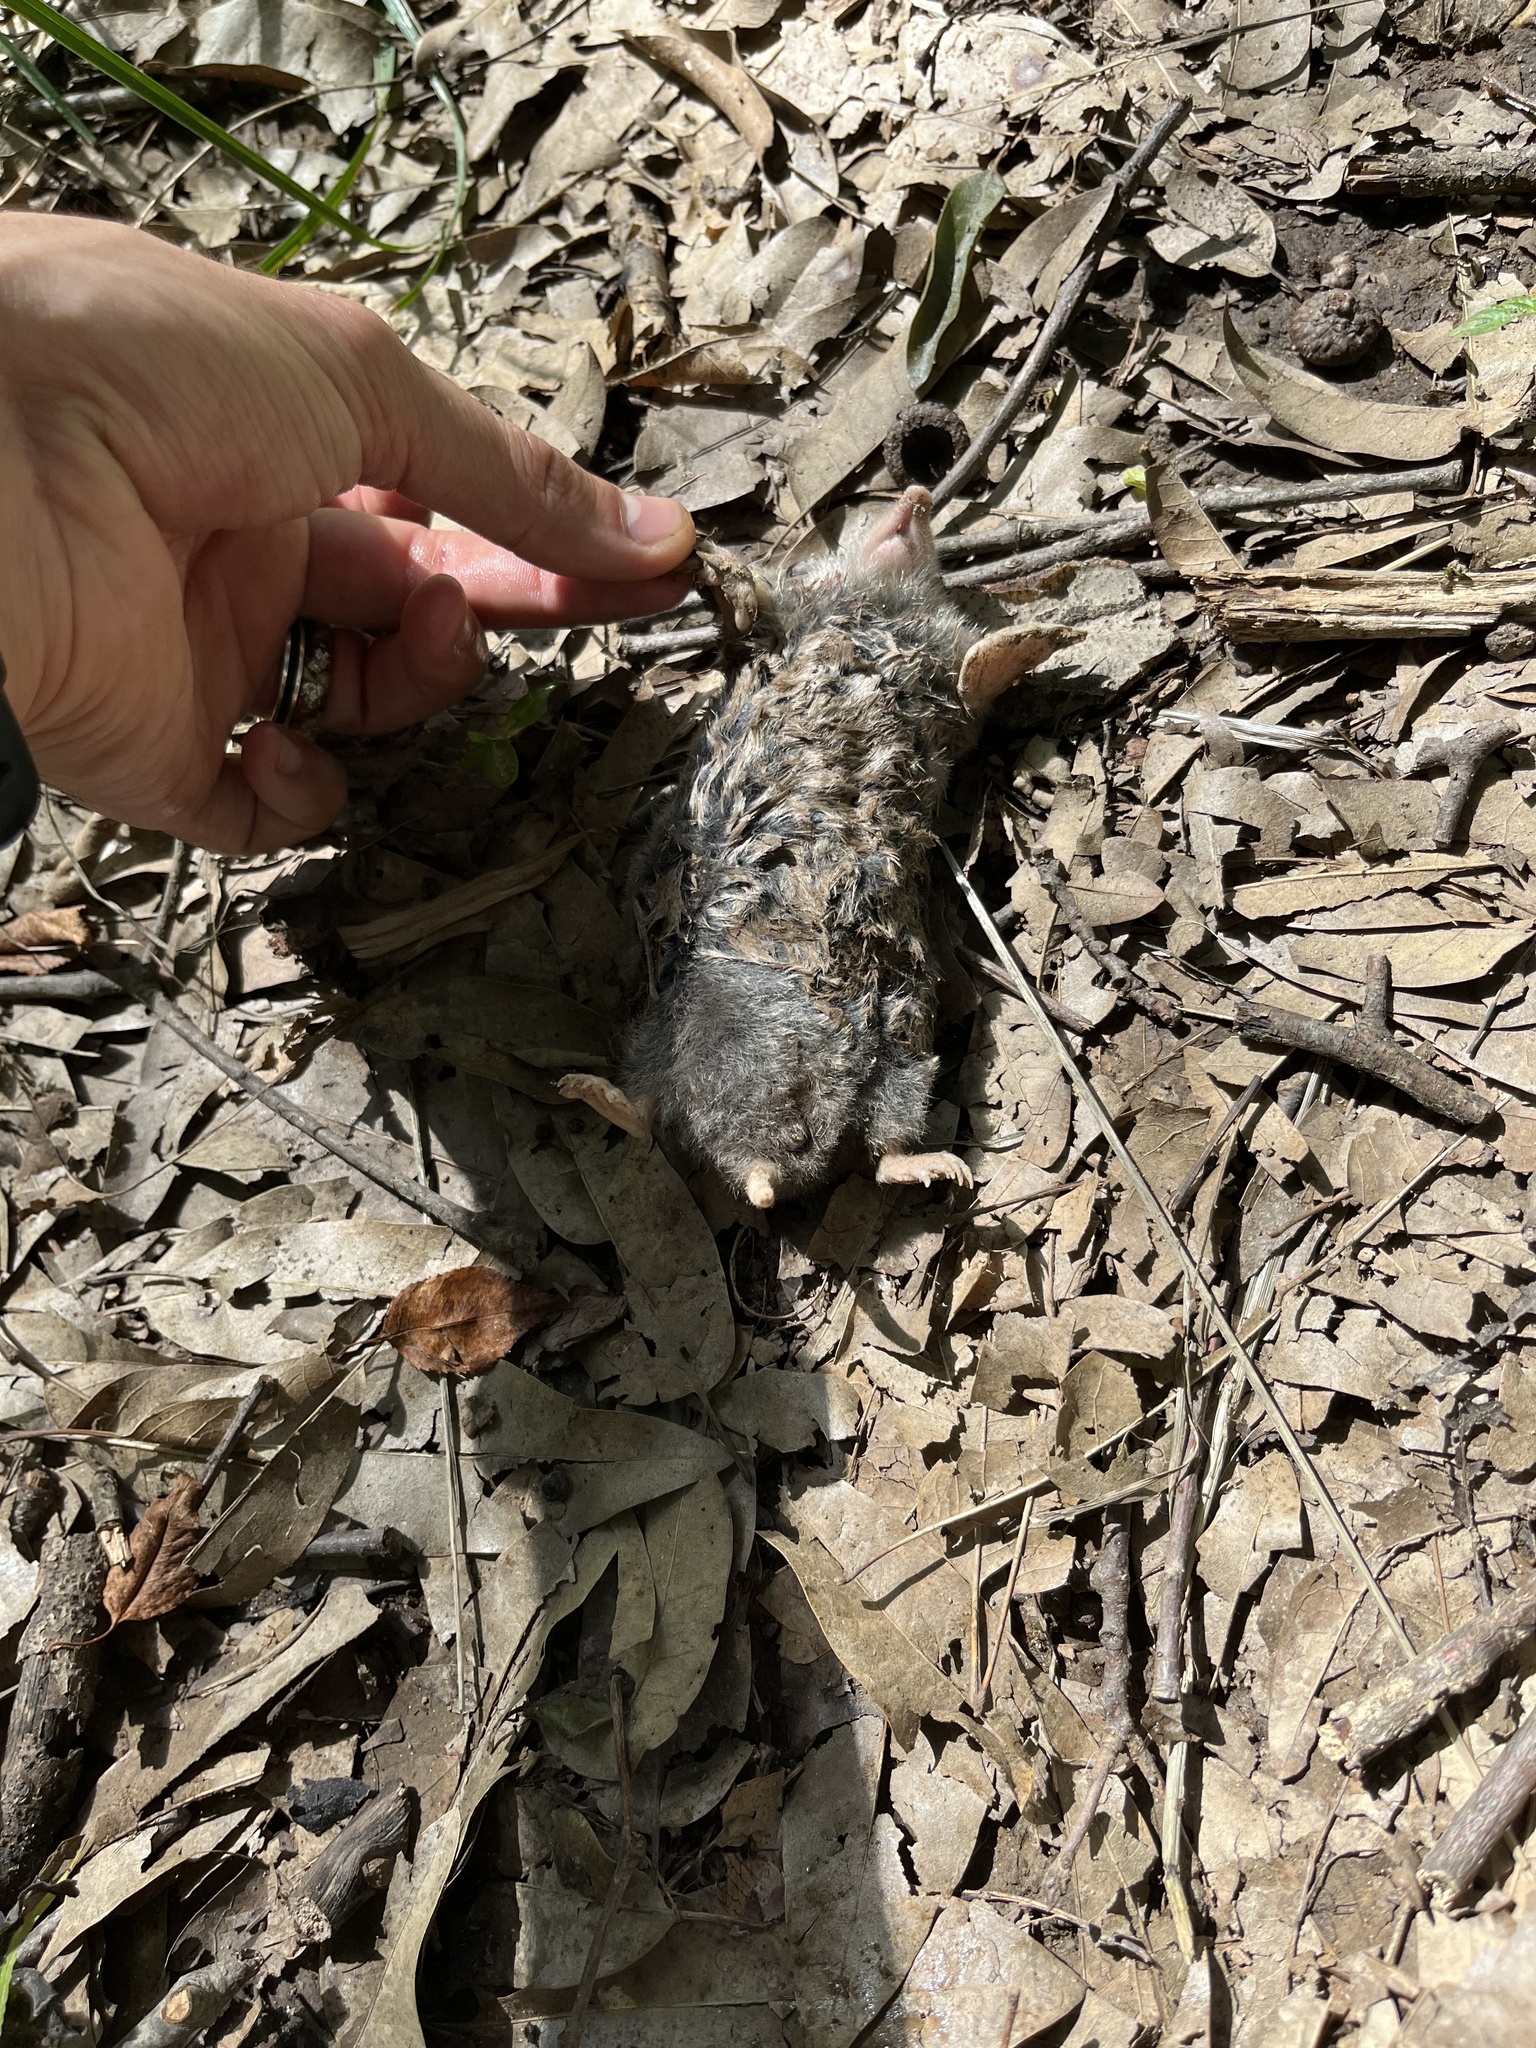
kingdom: Animalia
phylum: Chordata
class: Mammalia
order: Soricomorpha
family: Talpidae
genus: Scalopus
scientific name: Scalopus aquaticus
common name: Eastern mole
